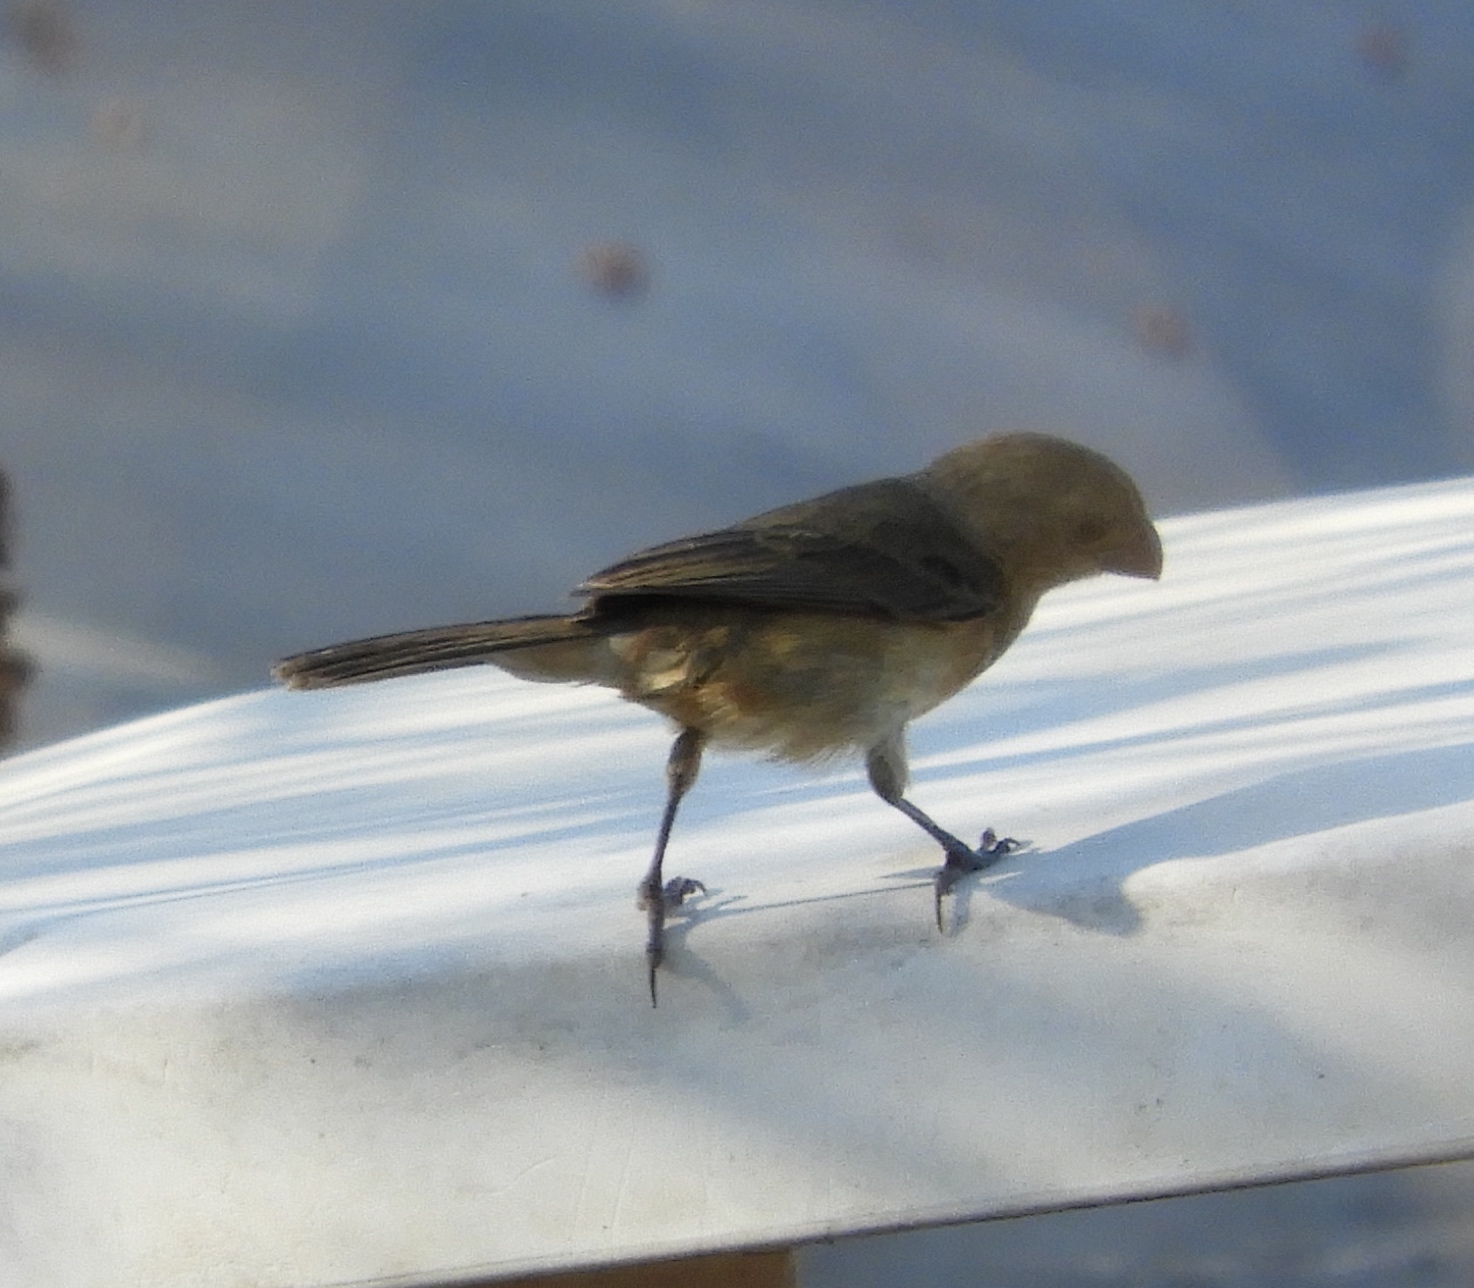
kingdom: Animalia
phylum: Chordata
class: Aves
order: Passeriformes
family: Thraupidae
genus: Sporophila
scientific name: Sporophila torqueola
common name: White-collared seedeater
